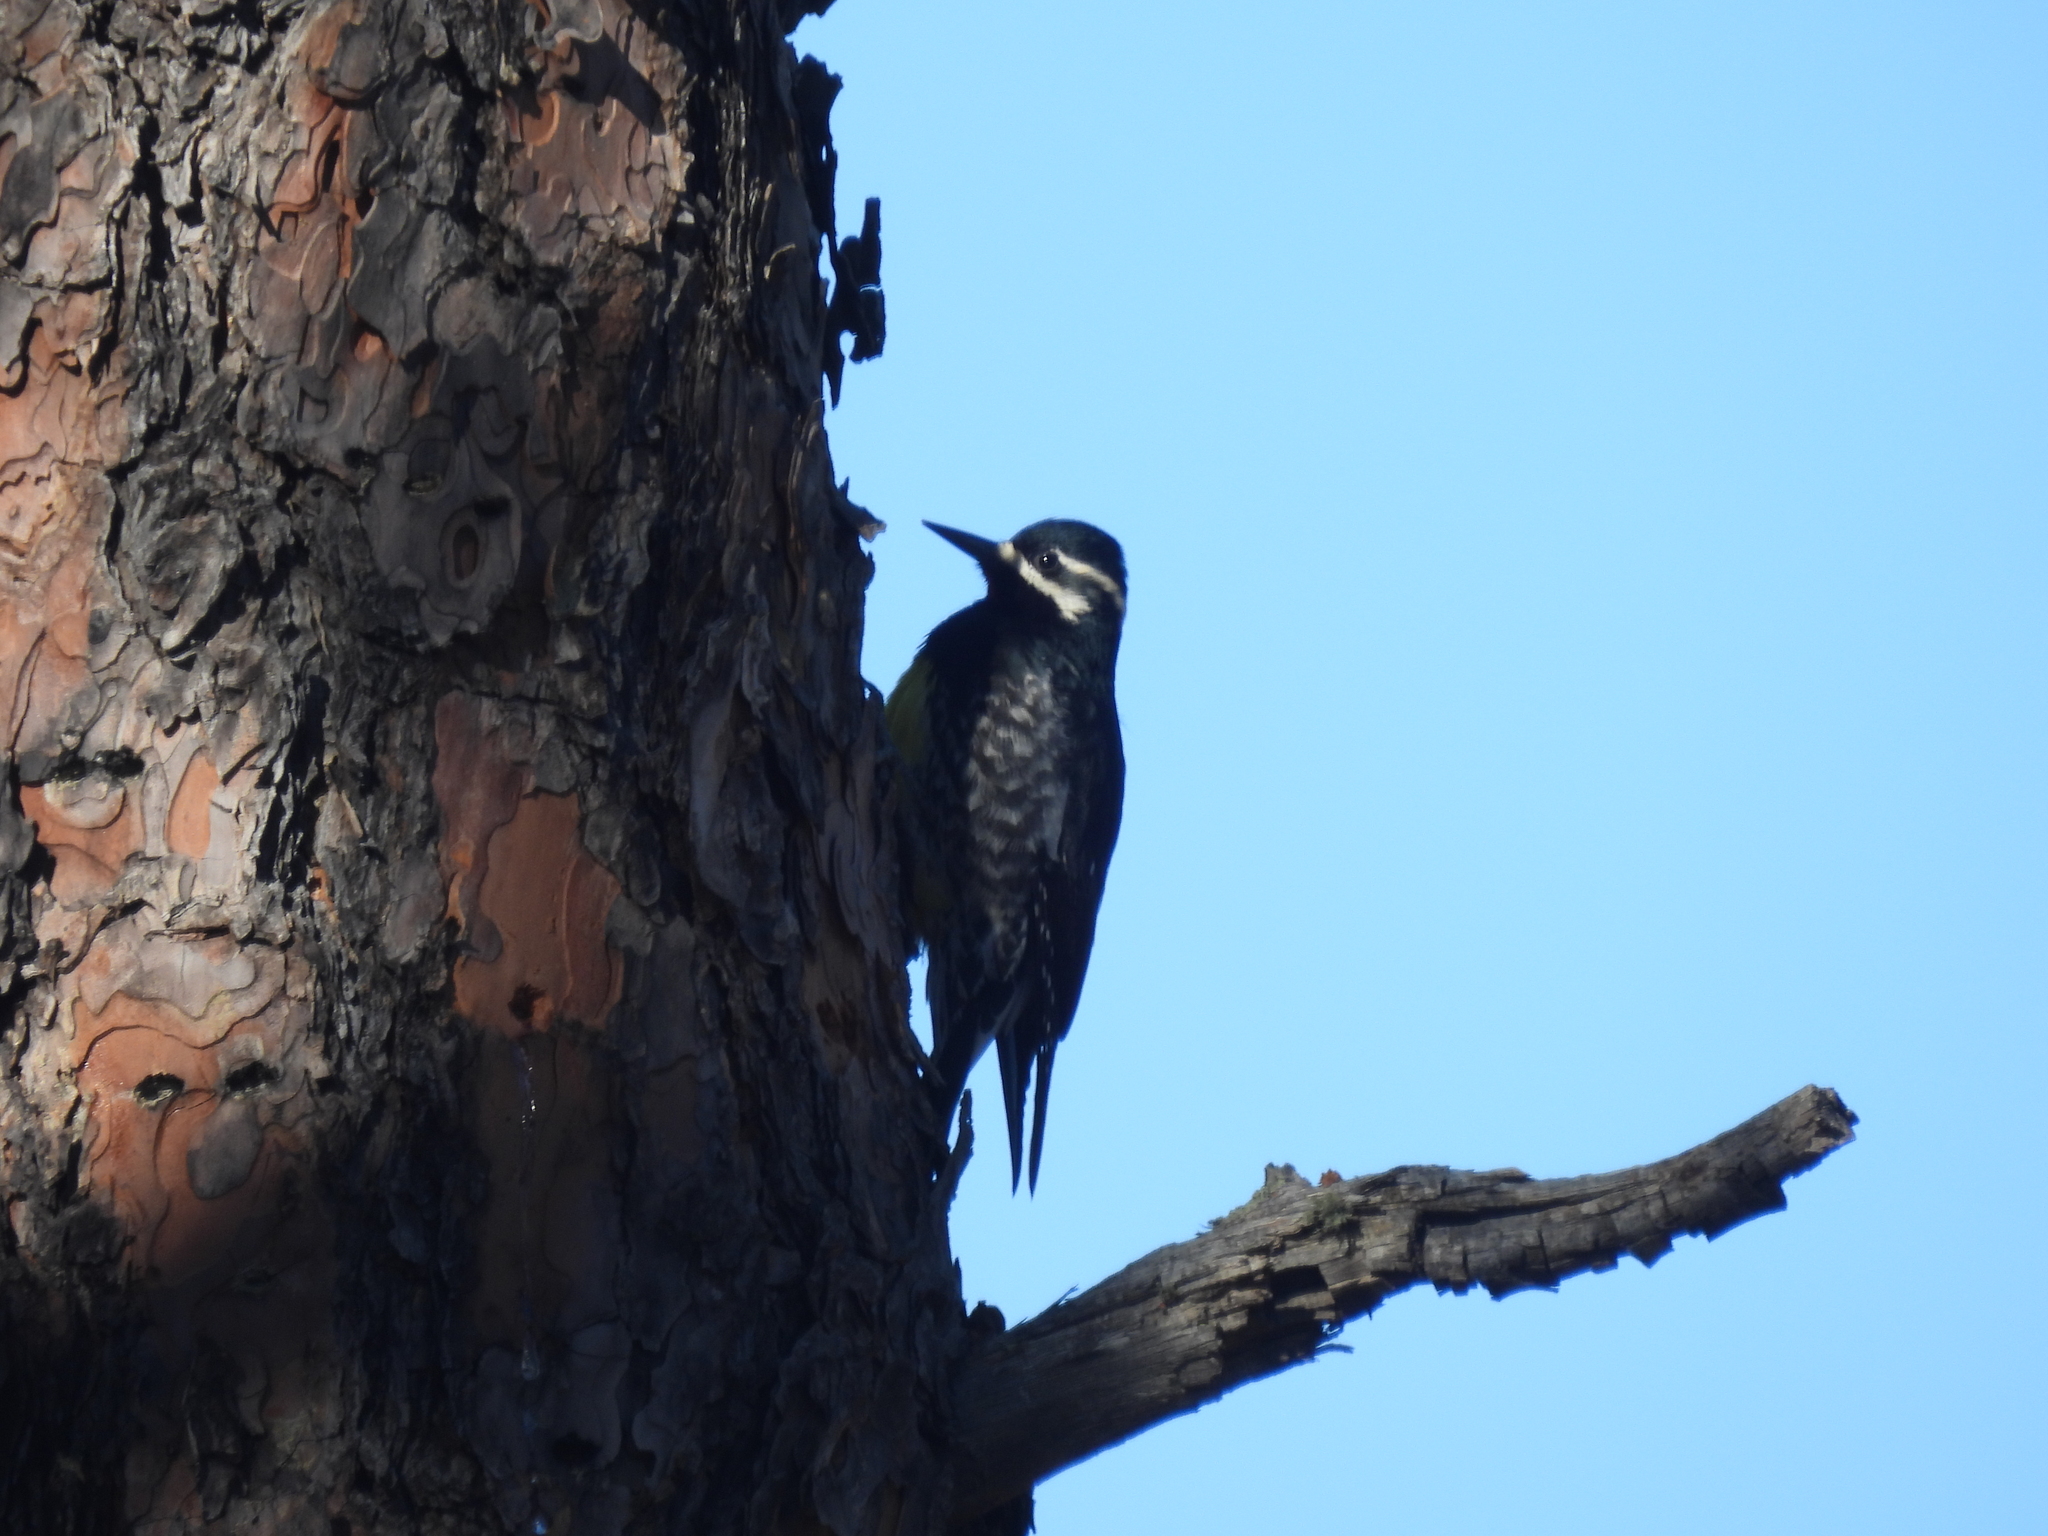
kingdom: Animalia
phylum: Chordata
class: Aves
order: Piciformes
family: Picidae
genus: Sphyrapicus
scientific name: Sphyrapicus thyroideus
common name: Williamson's sapsucker
